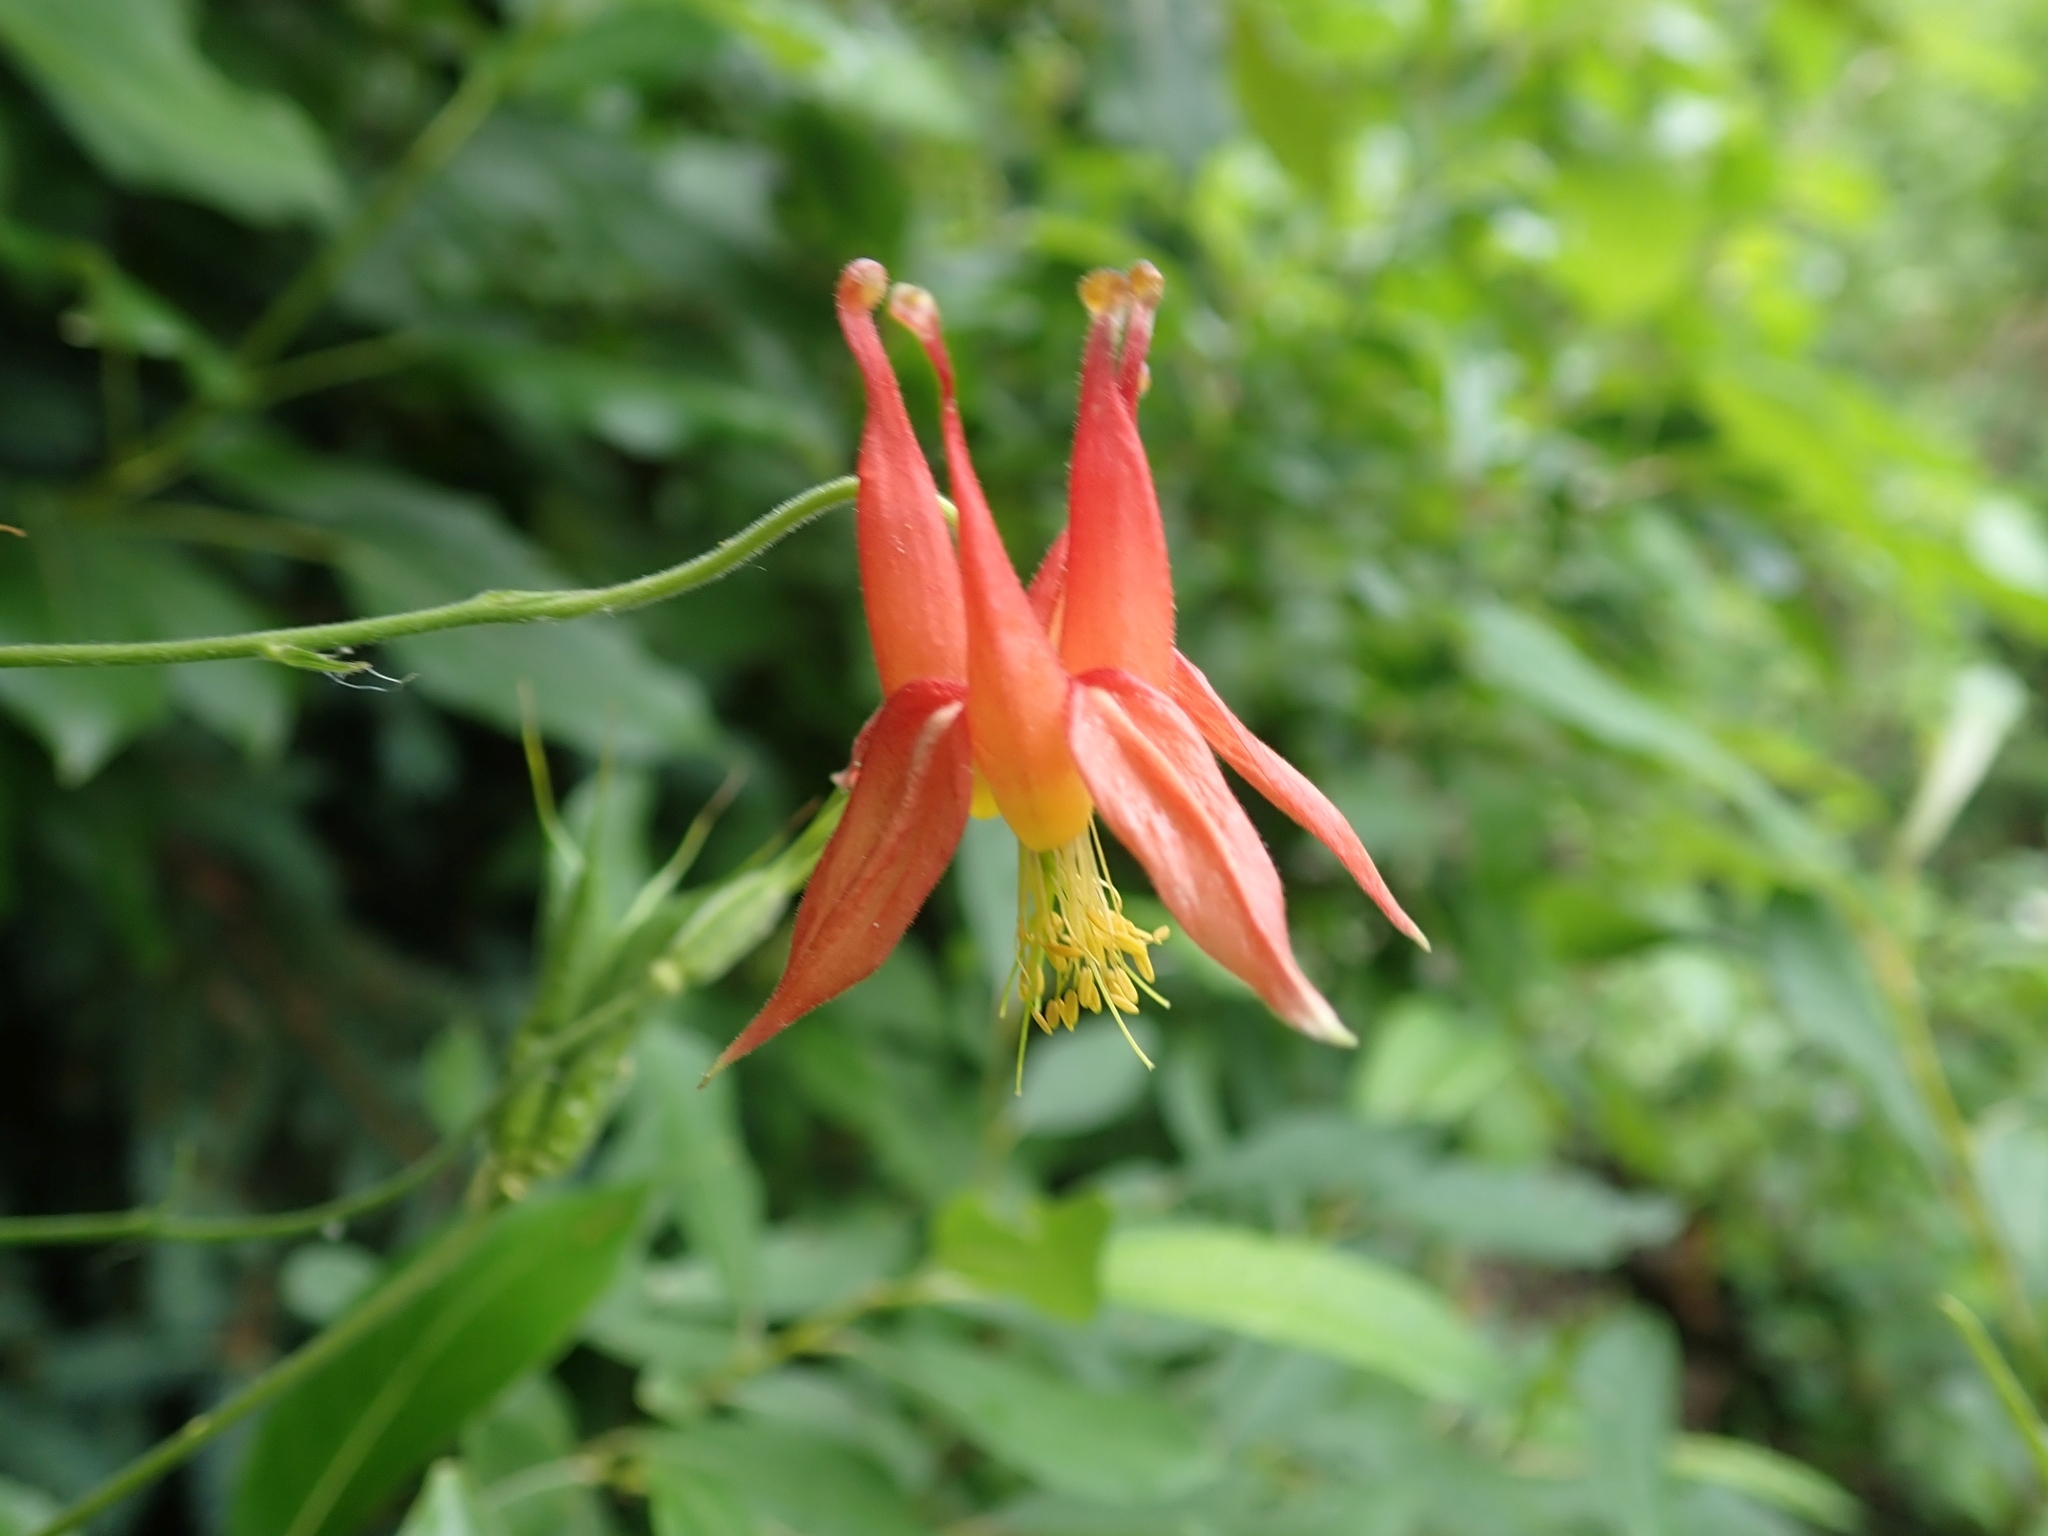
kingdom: Plantae
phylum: Tracheophyta
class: Magnoliopsida
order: Ranunculales
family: Ranunculaceae
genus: Aquilegia
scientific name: Aquilegia formosa
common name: Sitka columbine
